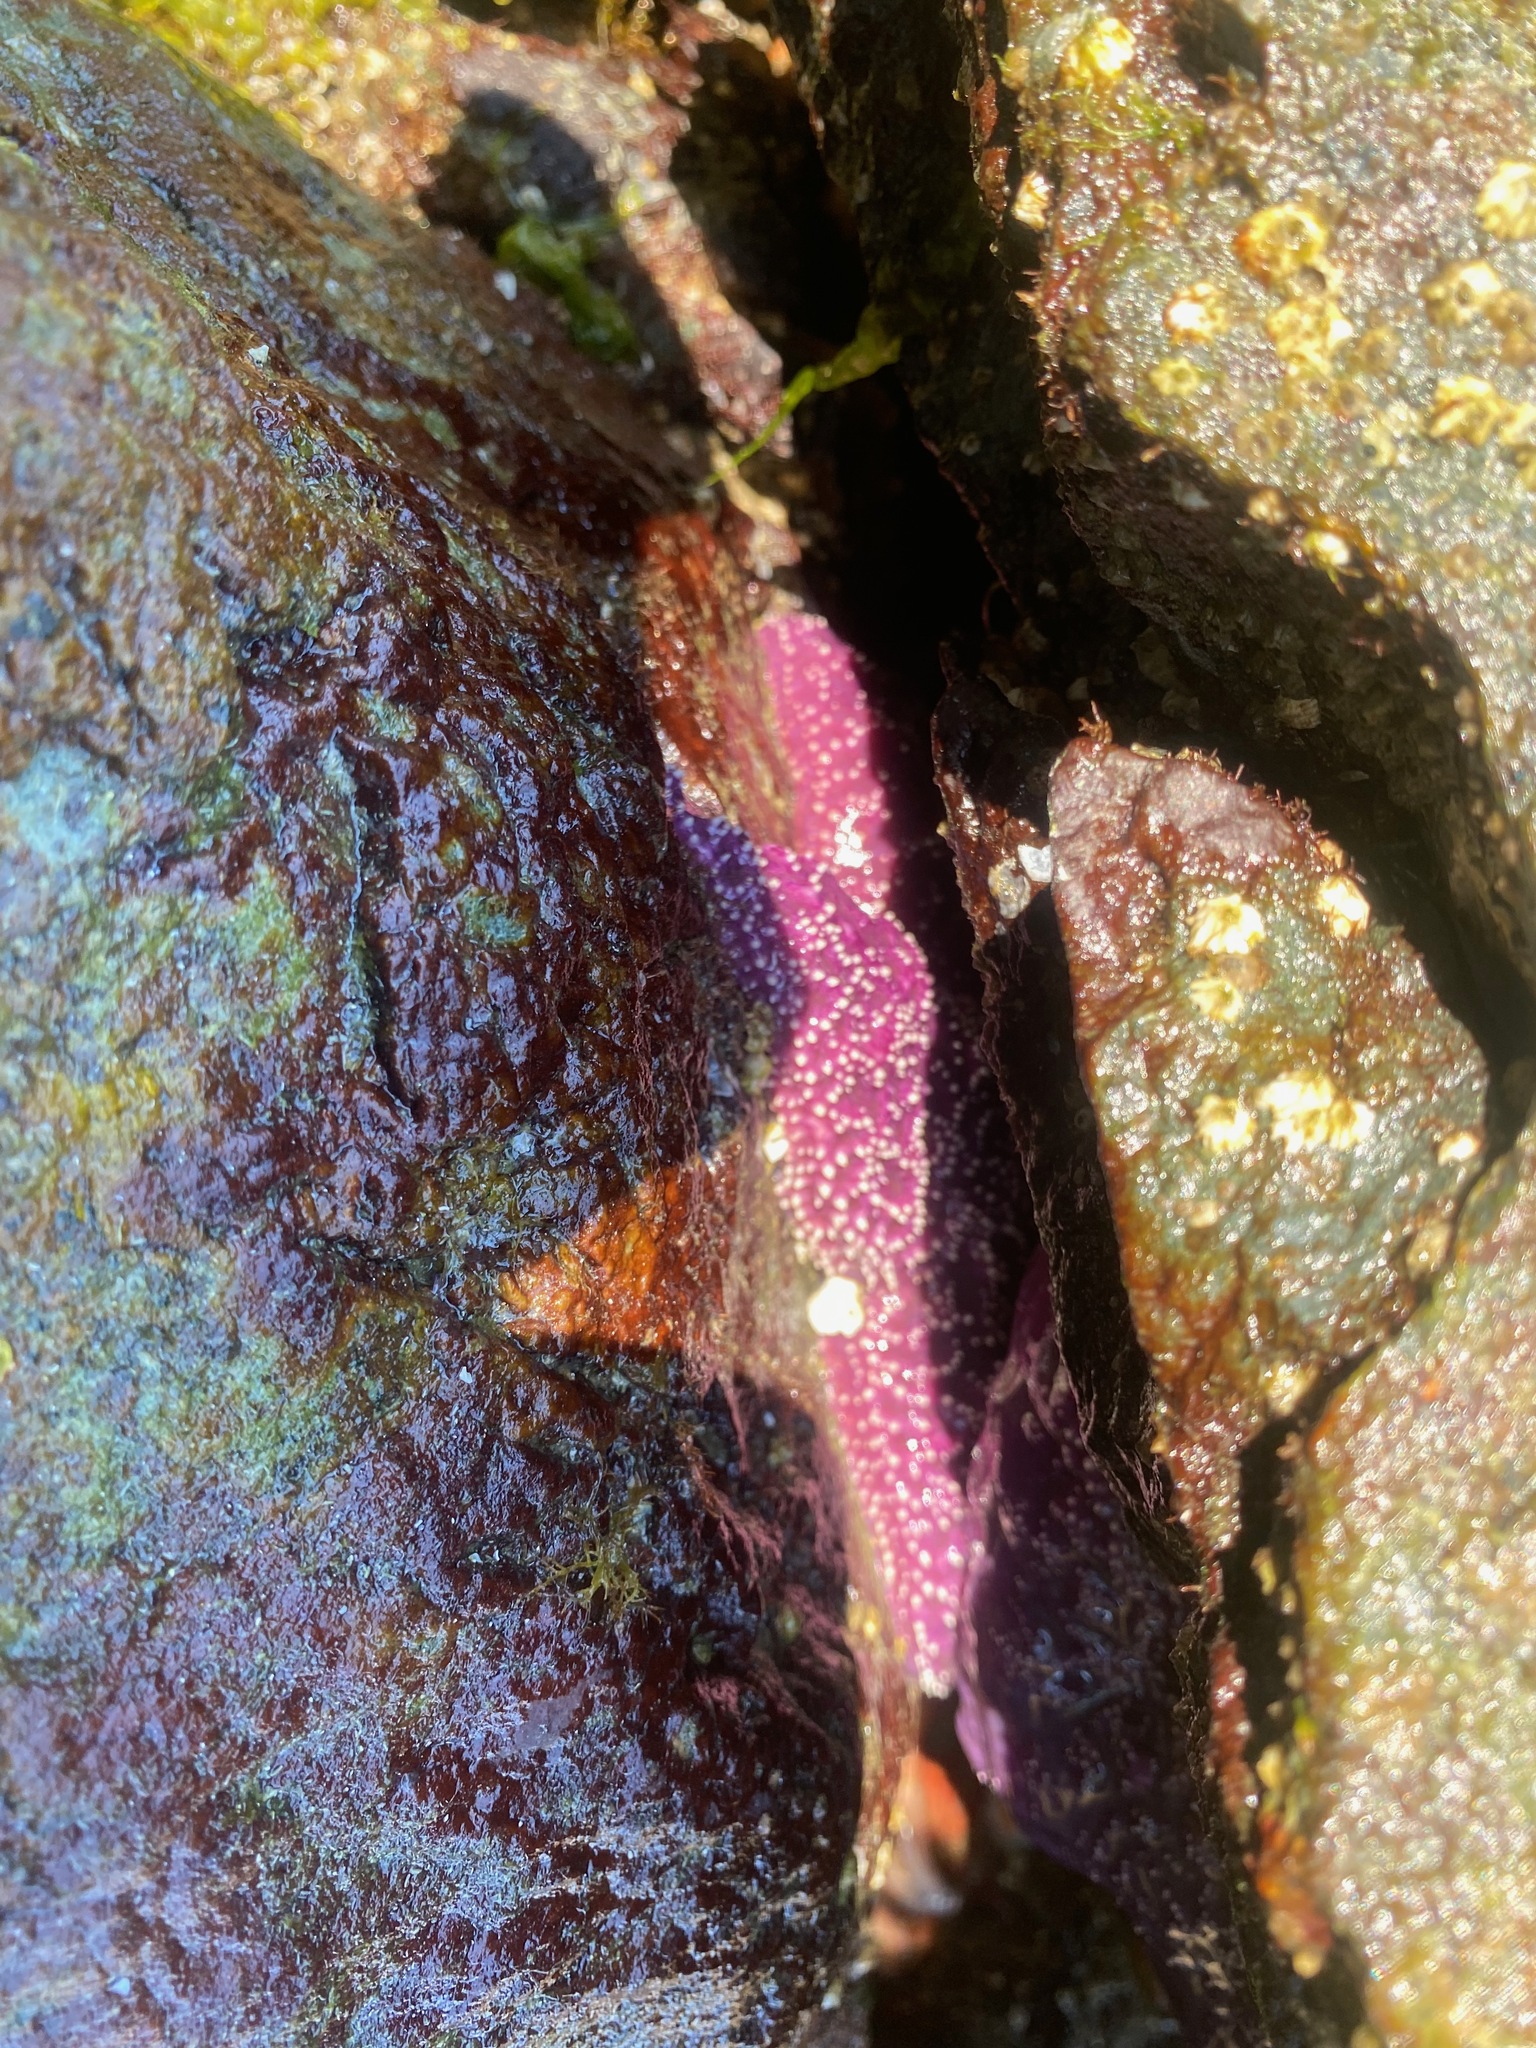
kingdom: Animalia
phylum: Echinodermata
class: Asteroidea
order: Forcipulatida
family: Asteriidae
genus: Pisaster
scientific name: Pisaster ochraceus
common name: Ochre stars
